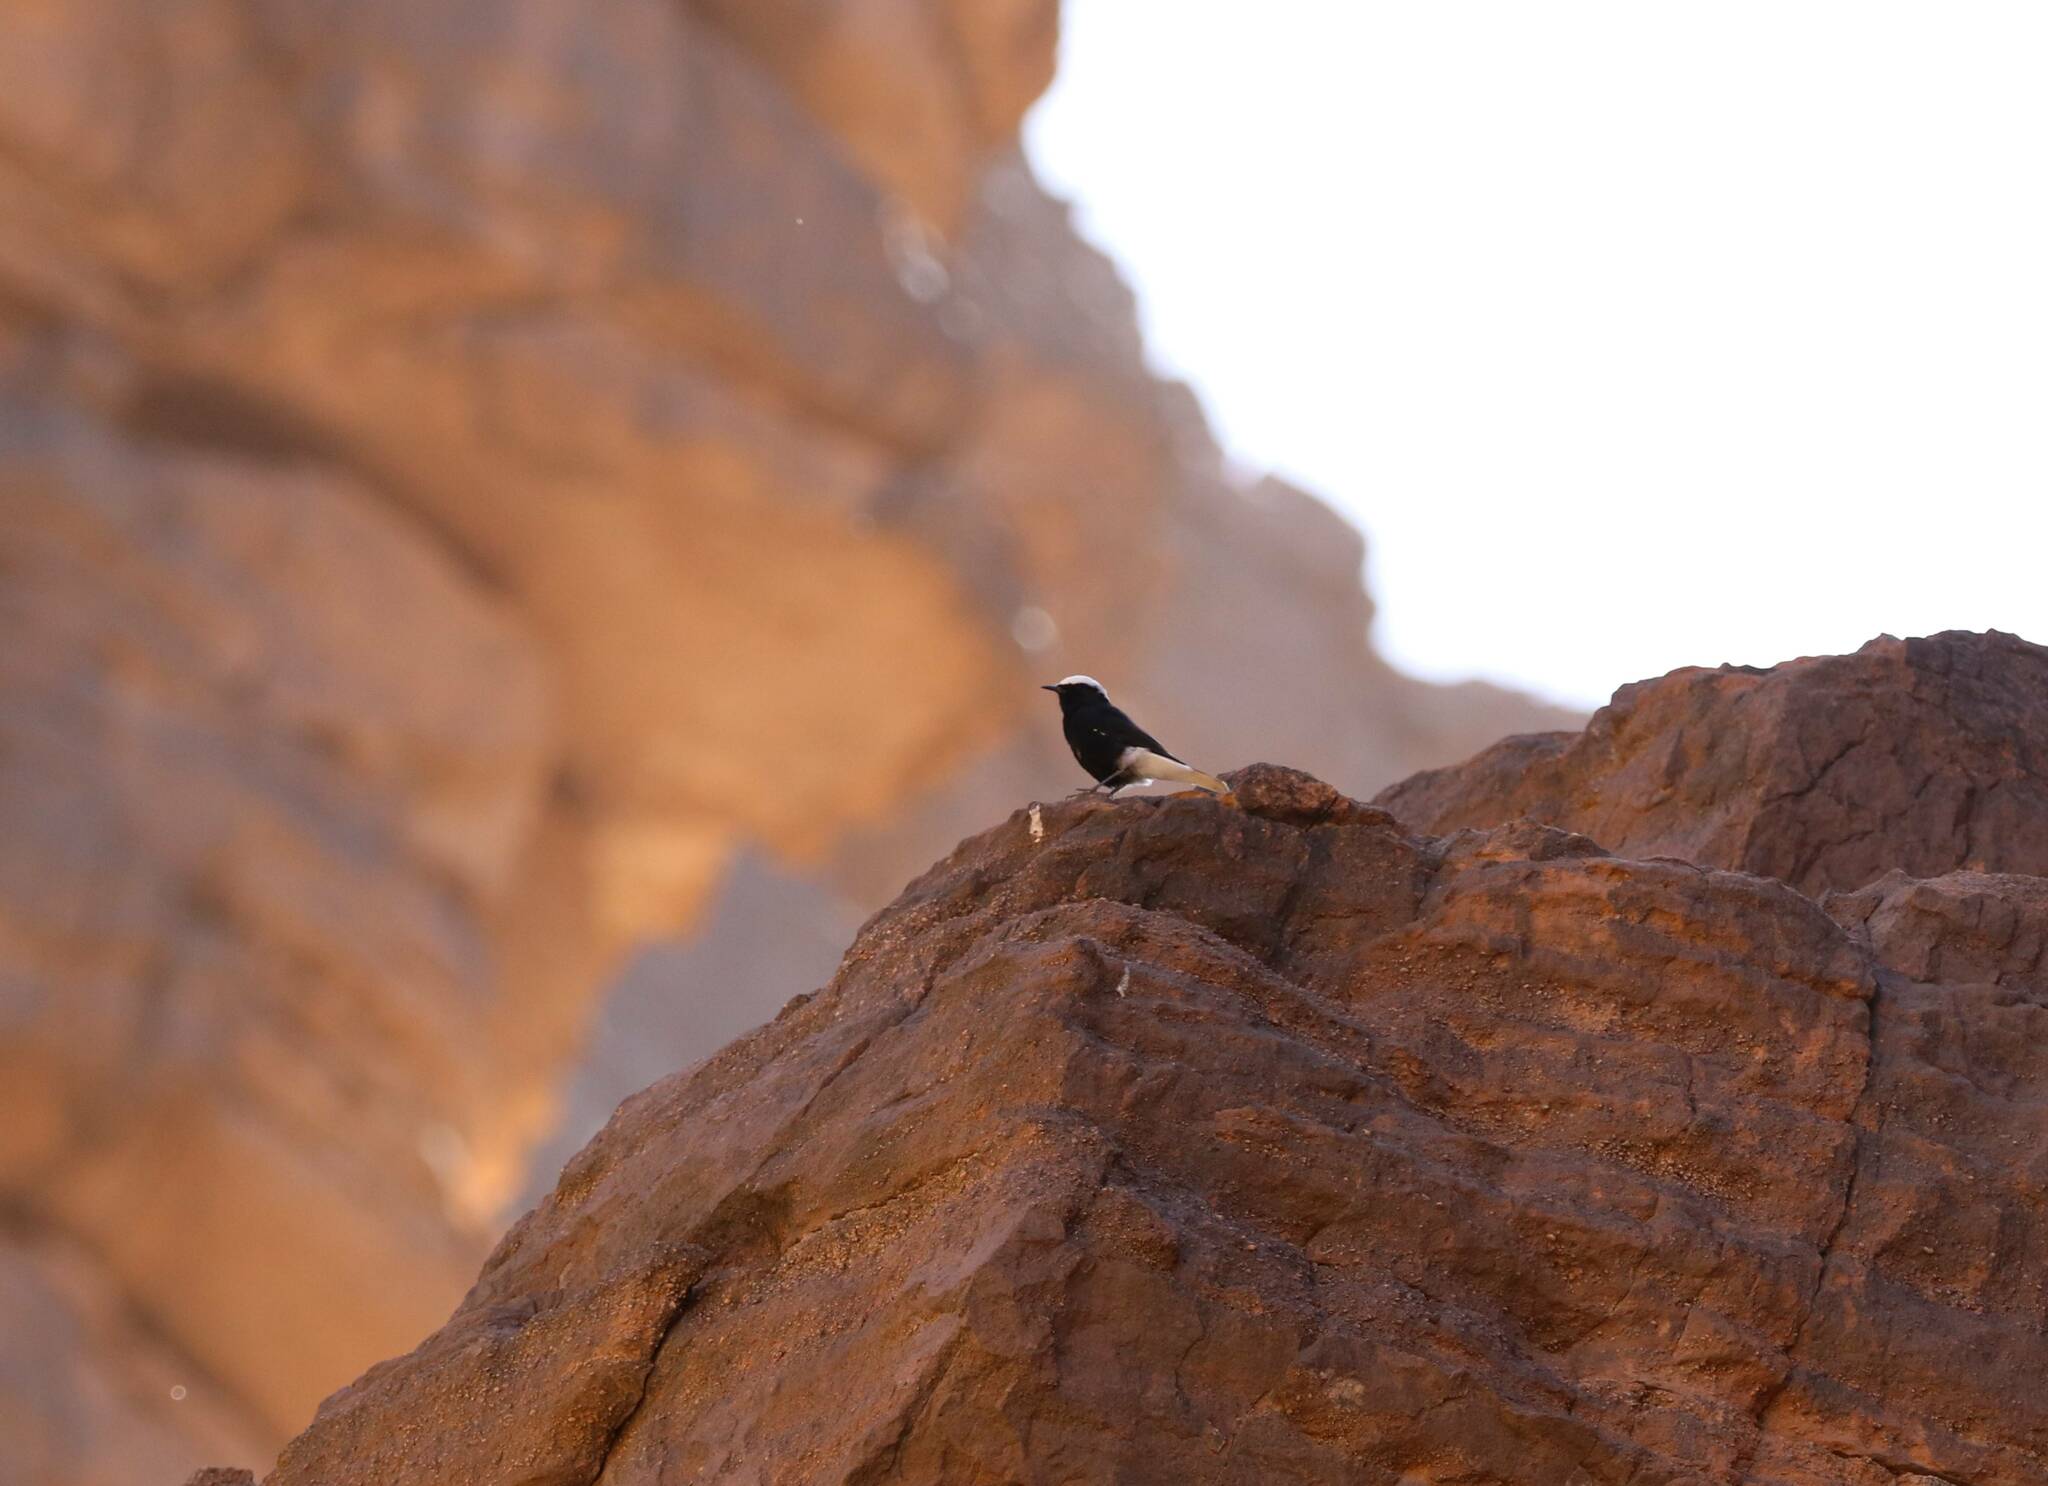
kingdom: Animalia
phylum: Chordata
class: Aves
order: Passeriformes
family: Muscicapidae
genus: Oenanthe
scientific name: Oenanthe leucopyga
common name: White-crowned wheatear
